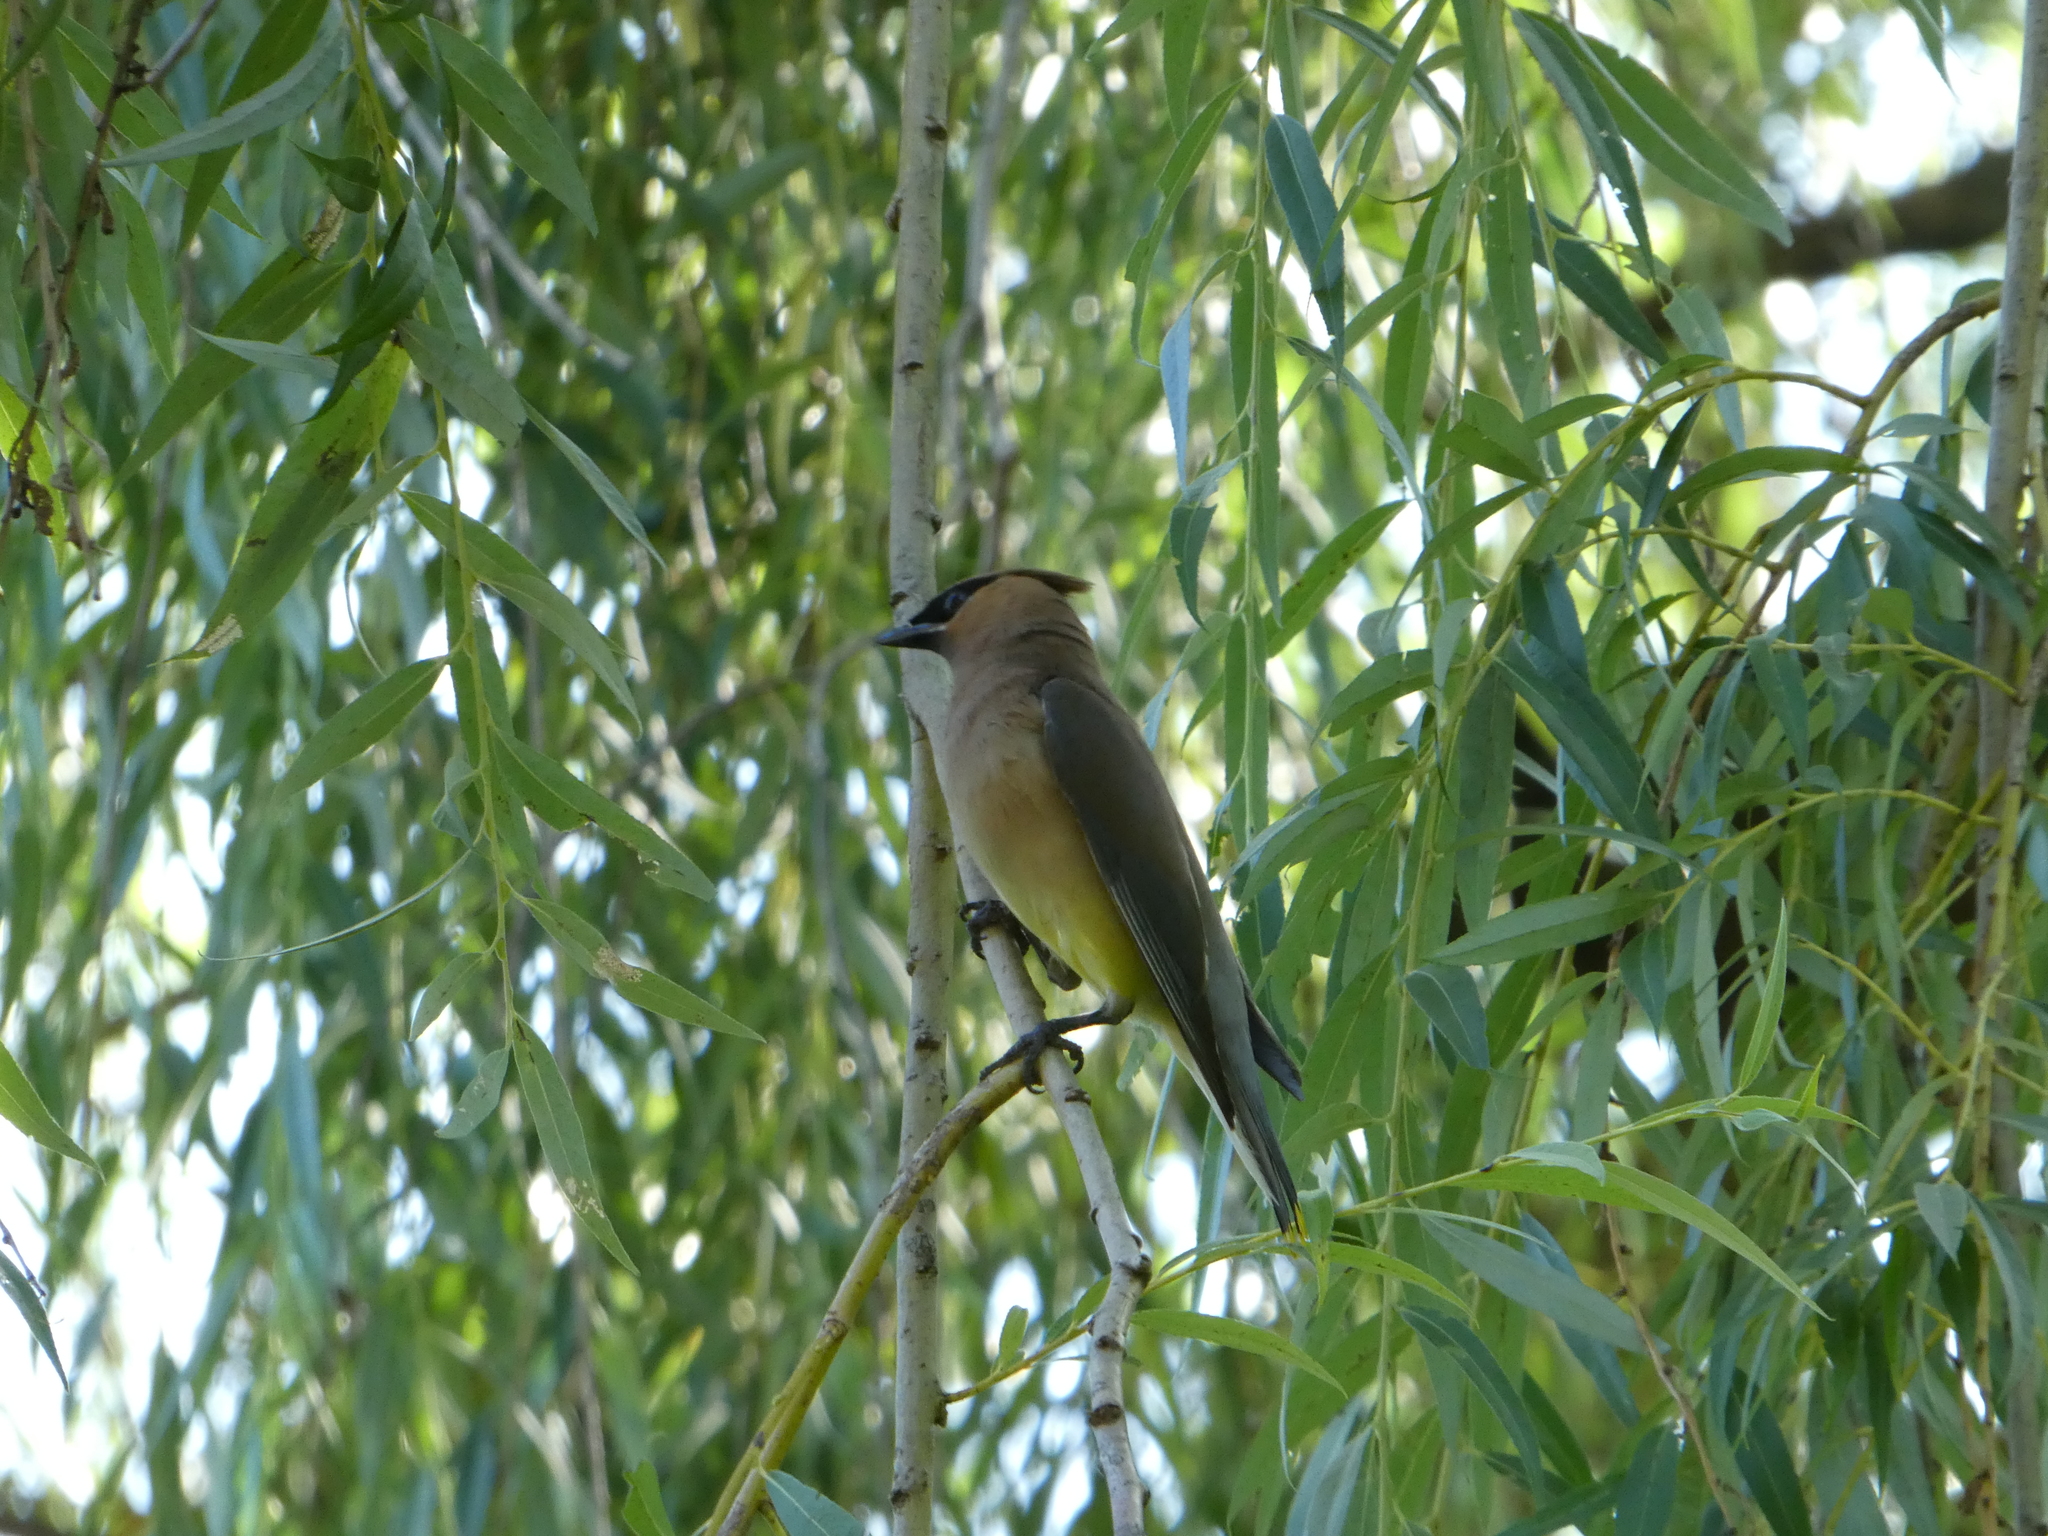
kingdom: Animalia
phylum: Chordata
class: Aves
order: Passeriformes
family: Bombycillidae
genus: Bombycilla
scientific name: Bombycilla cedrorum
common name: Cedar waxwing
